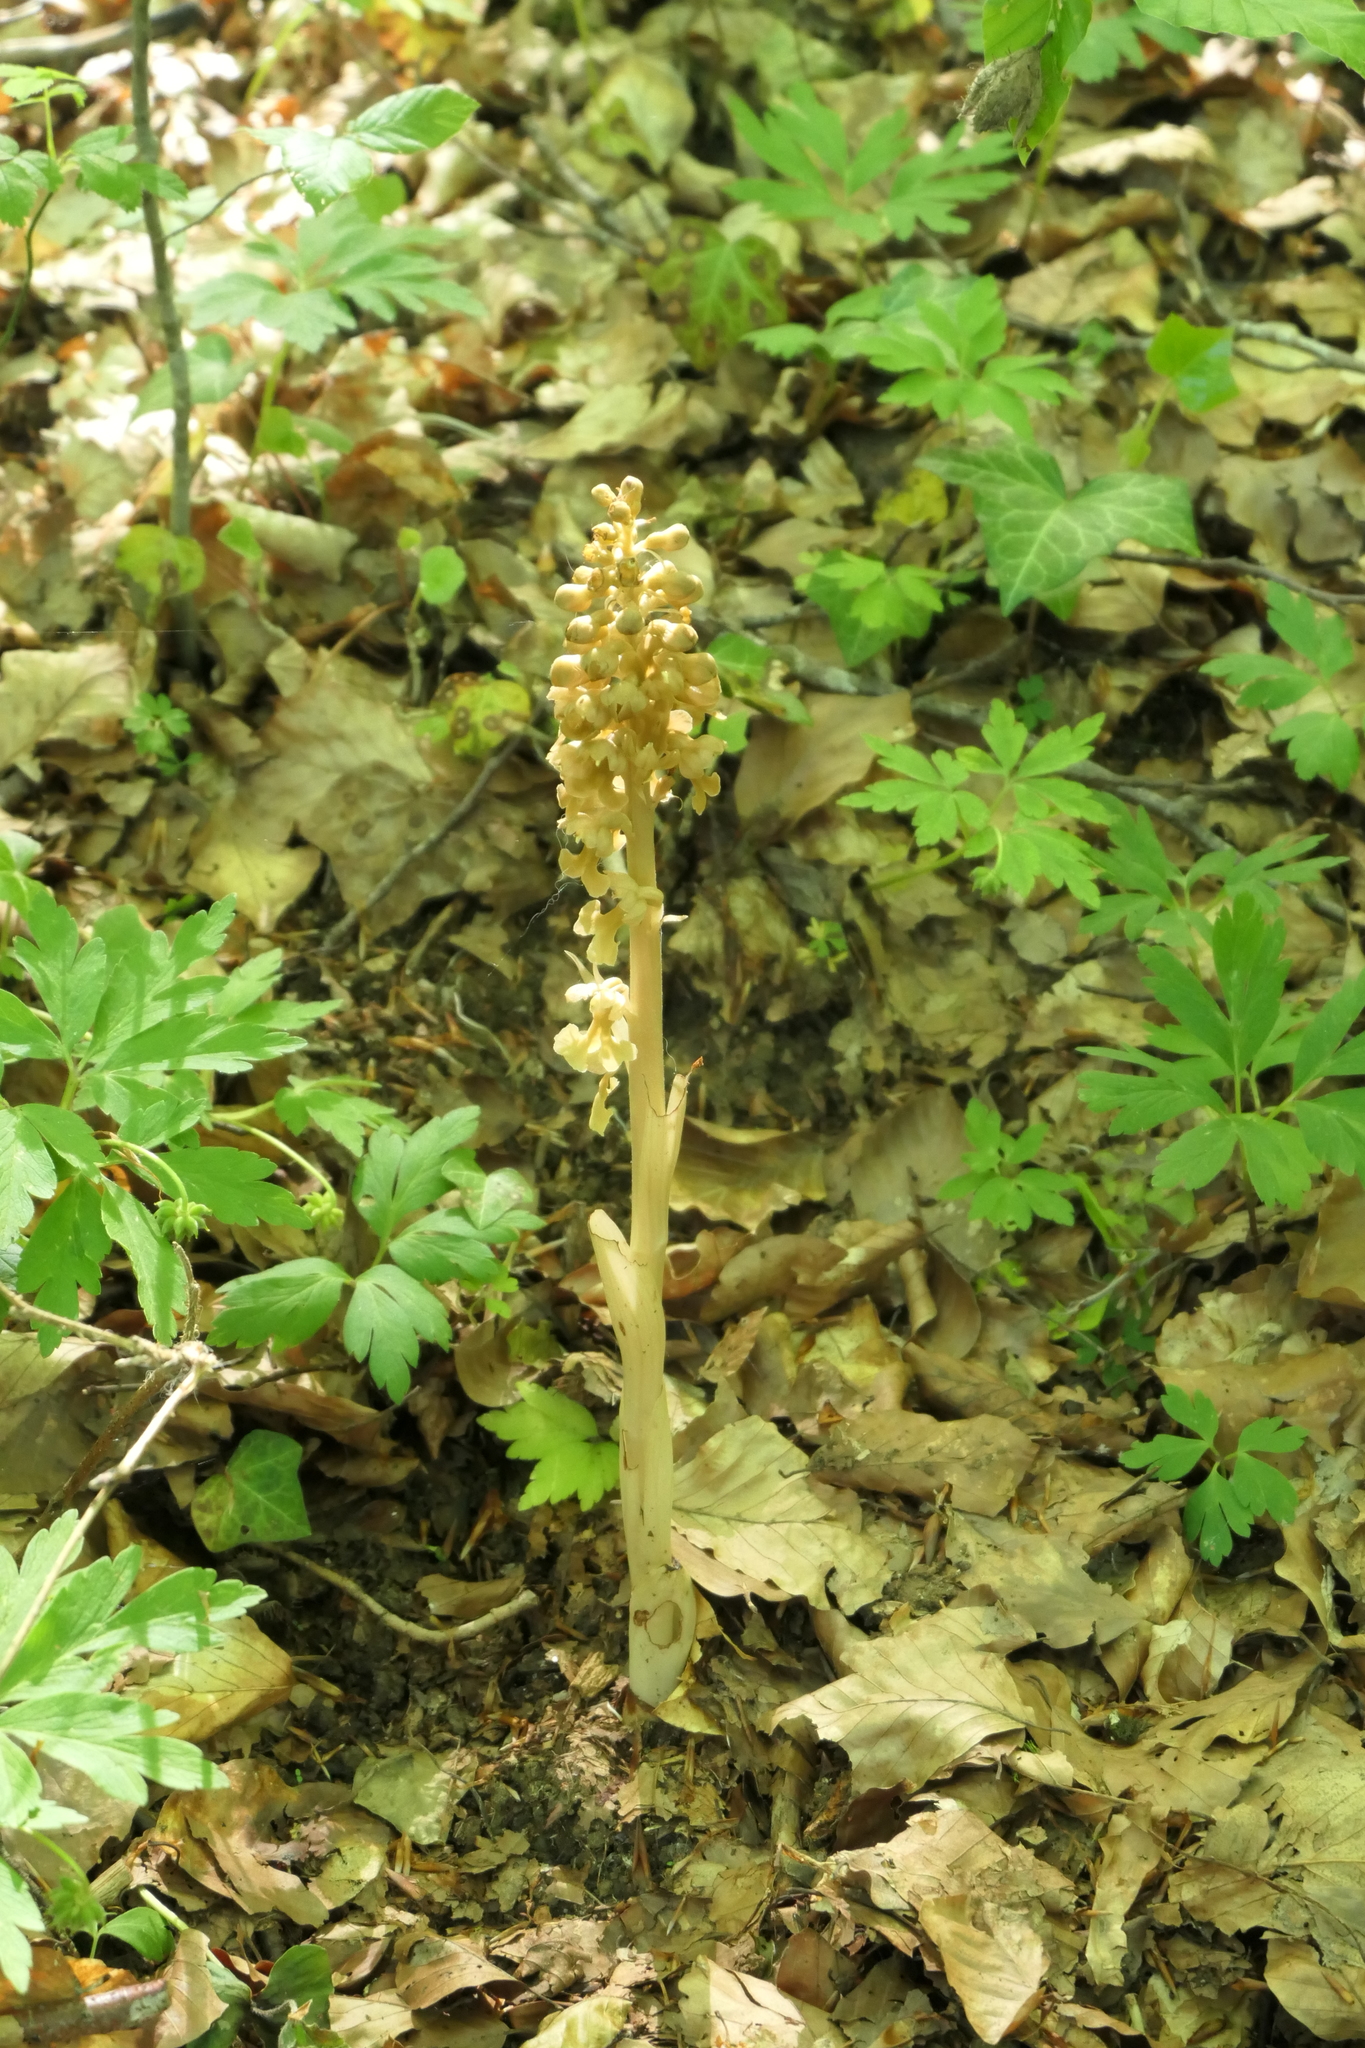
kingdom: Plantae
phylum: Tracheophyta
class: Liliopsida
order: Asparagales
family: Orchidaceae
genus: Neottia
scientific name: Neottia nidus-avis
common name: Bird's-nest orchid
